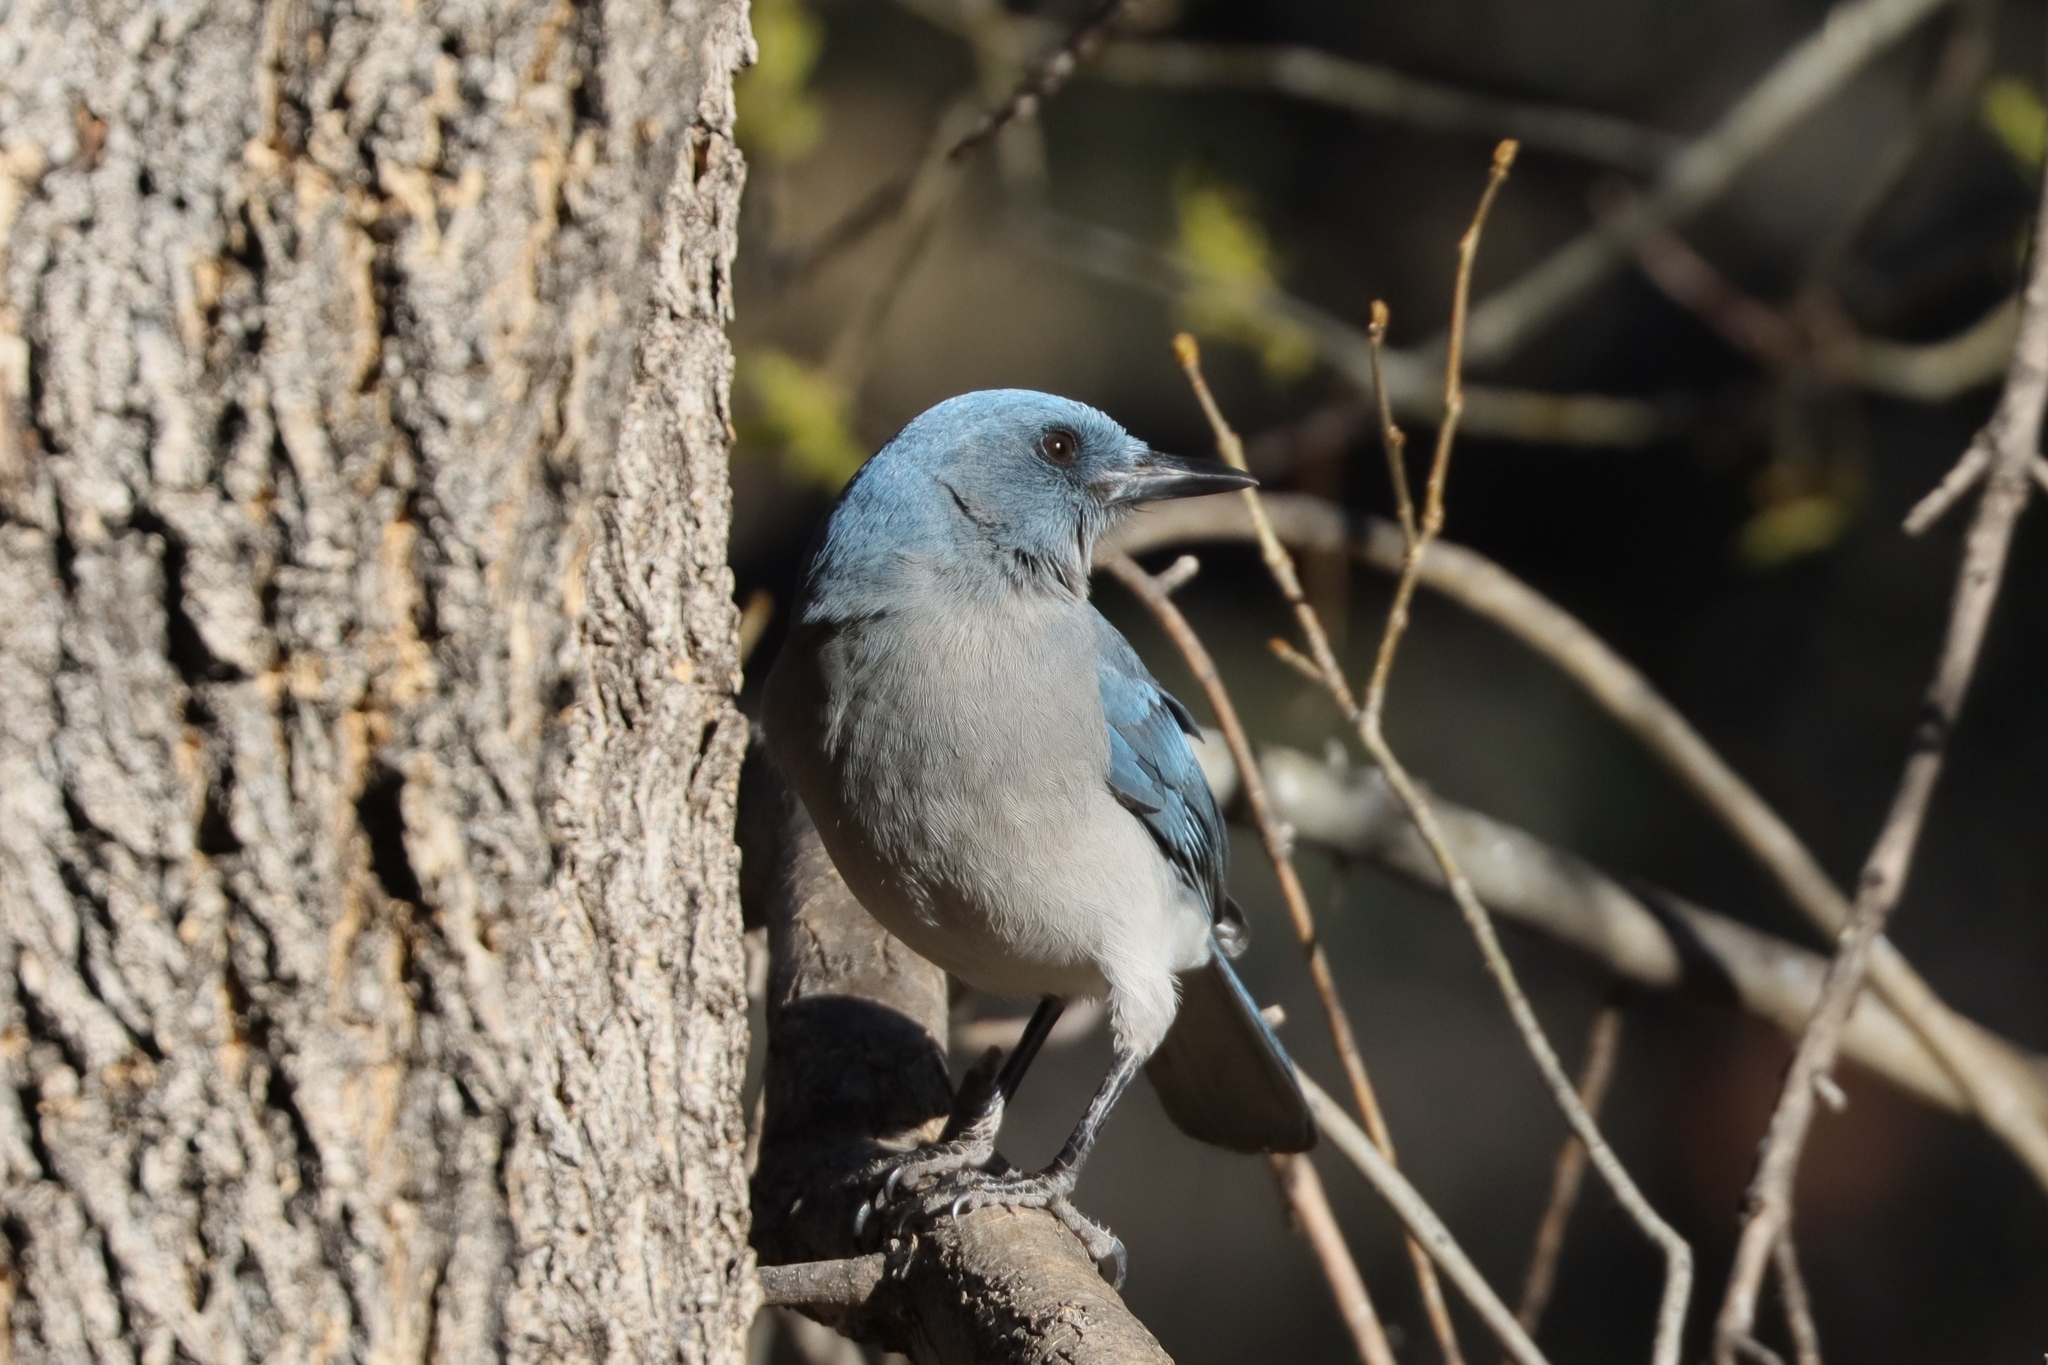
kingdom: Animalia
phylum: Chordata
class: Aves
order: Passeriformes
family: Corvidae
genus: Aphelocoma
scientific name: Aphelocoma wollweberi
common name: Mexican jay
